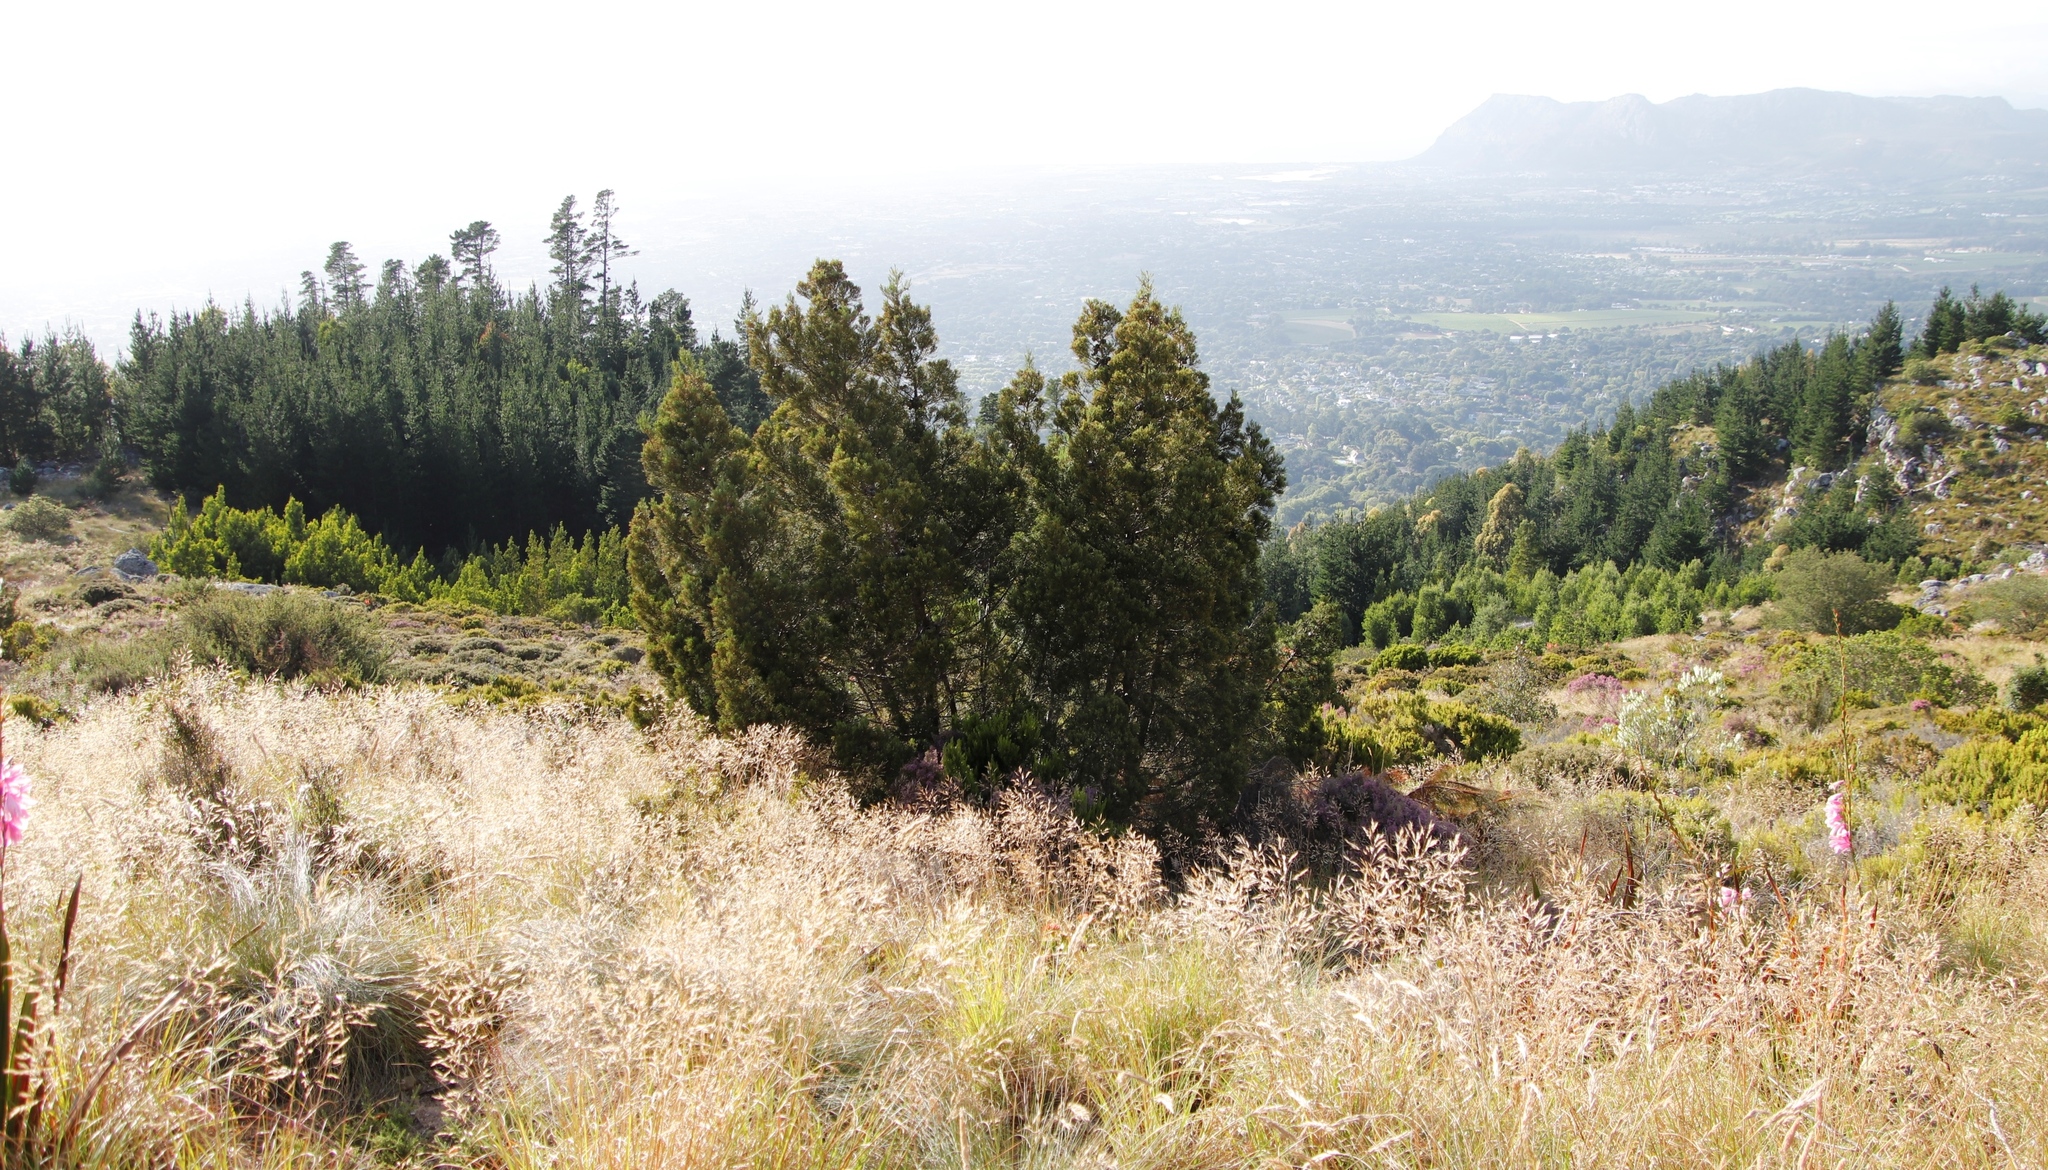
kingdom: Plantae
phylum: Tracheophyta
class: Pinopsida
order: Pinales
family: Cupressaceae
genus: Widdringtonia
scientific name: Widdringtonia nodiflora
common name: Cape cypress
